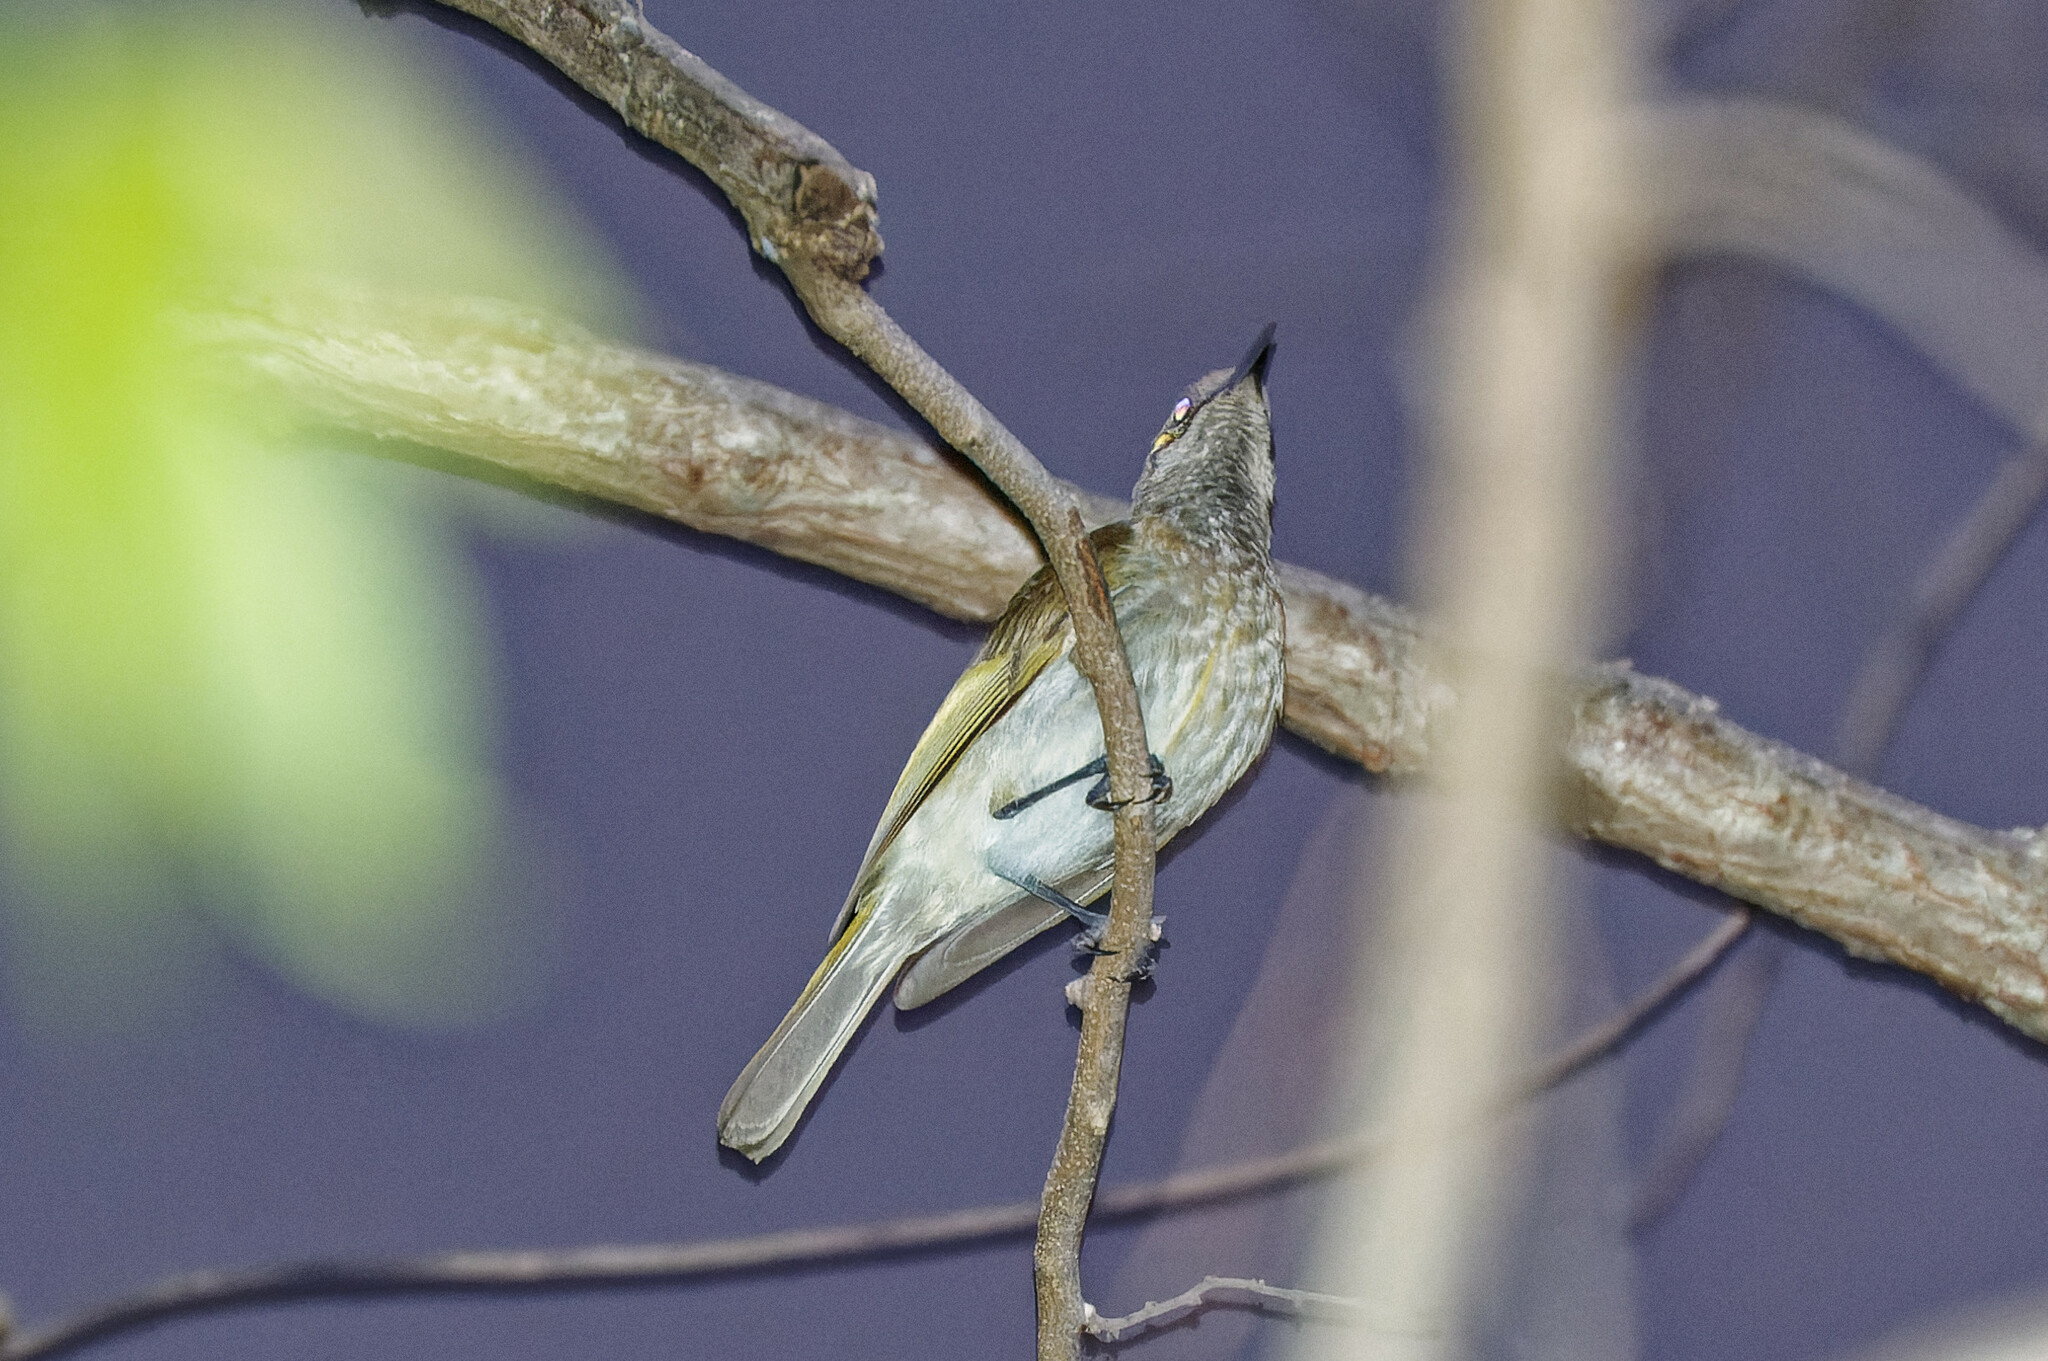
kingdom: Animalia
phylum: Chordata
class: Aves
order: Passeriformes
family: Meliphagidae
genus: Lichmera
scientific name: Lichmera indistincta
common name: Brown honeyeater
